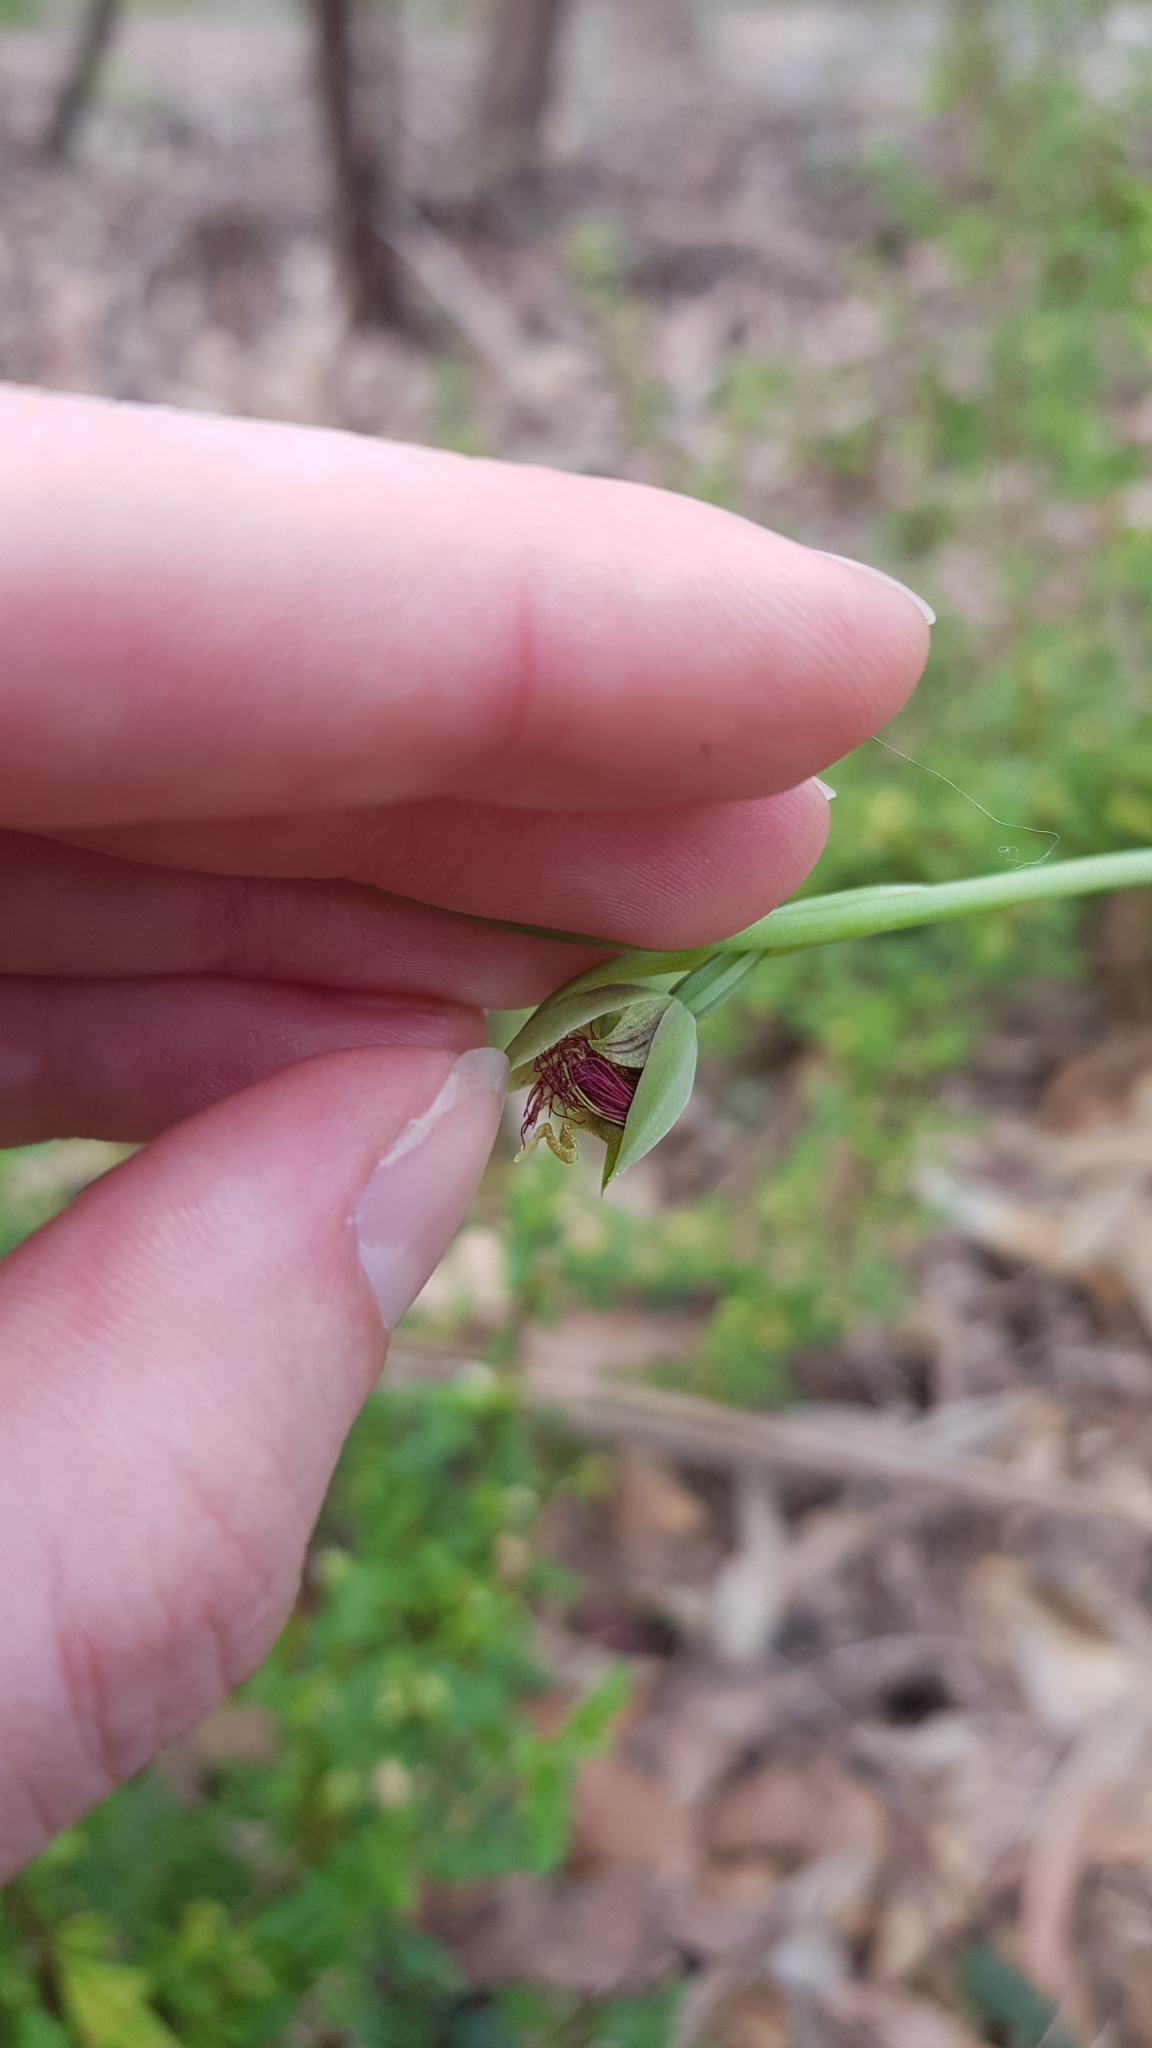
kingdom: Plantae
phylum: Tracheophyta
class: Liliopsida
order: Asparagales
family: Orchidaceae
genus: Calochilus
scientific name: Calochilus paludosus
